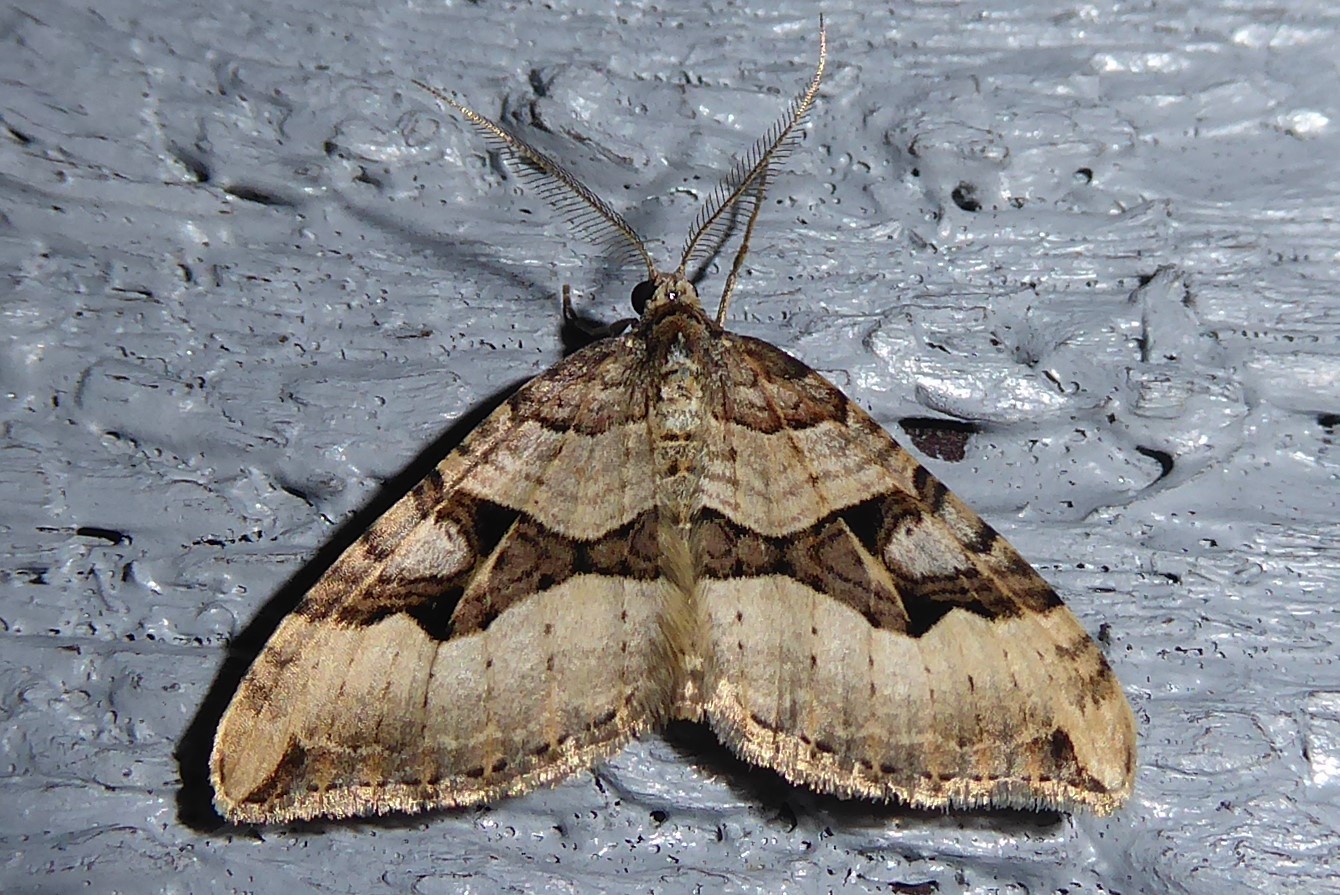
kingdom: Animalia
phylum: Arthropoda
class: Insecta
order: Lepidoptera
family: Geometridae
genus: Xanthorhoe
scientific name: Xanthorhoe semifissata
